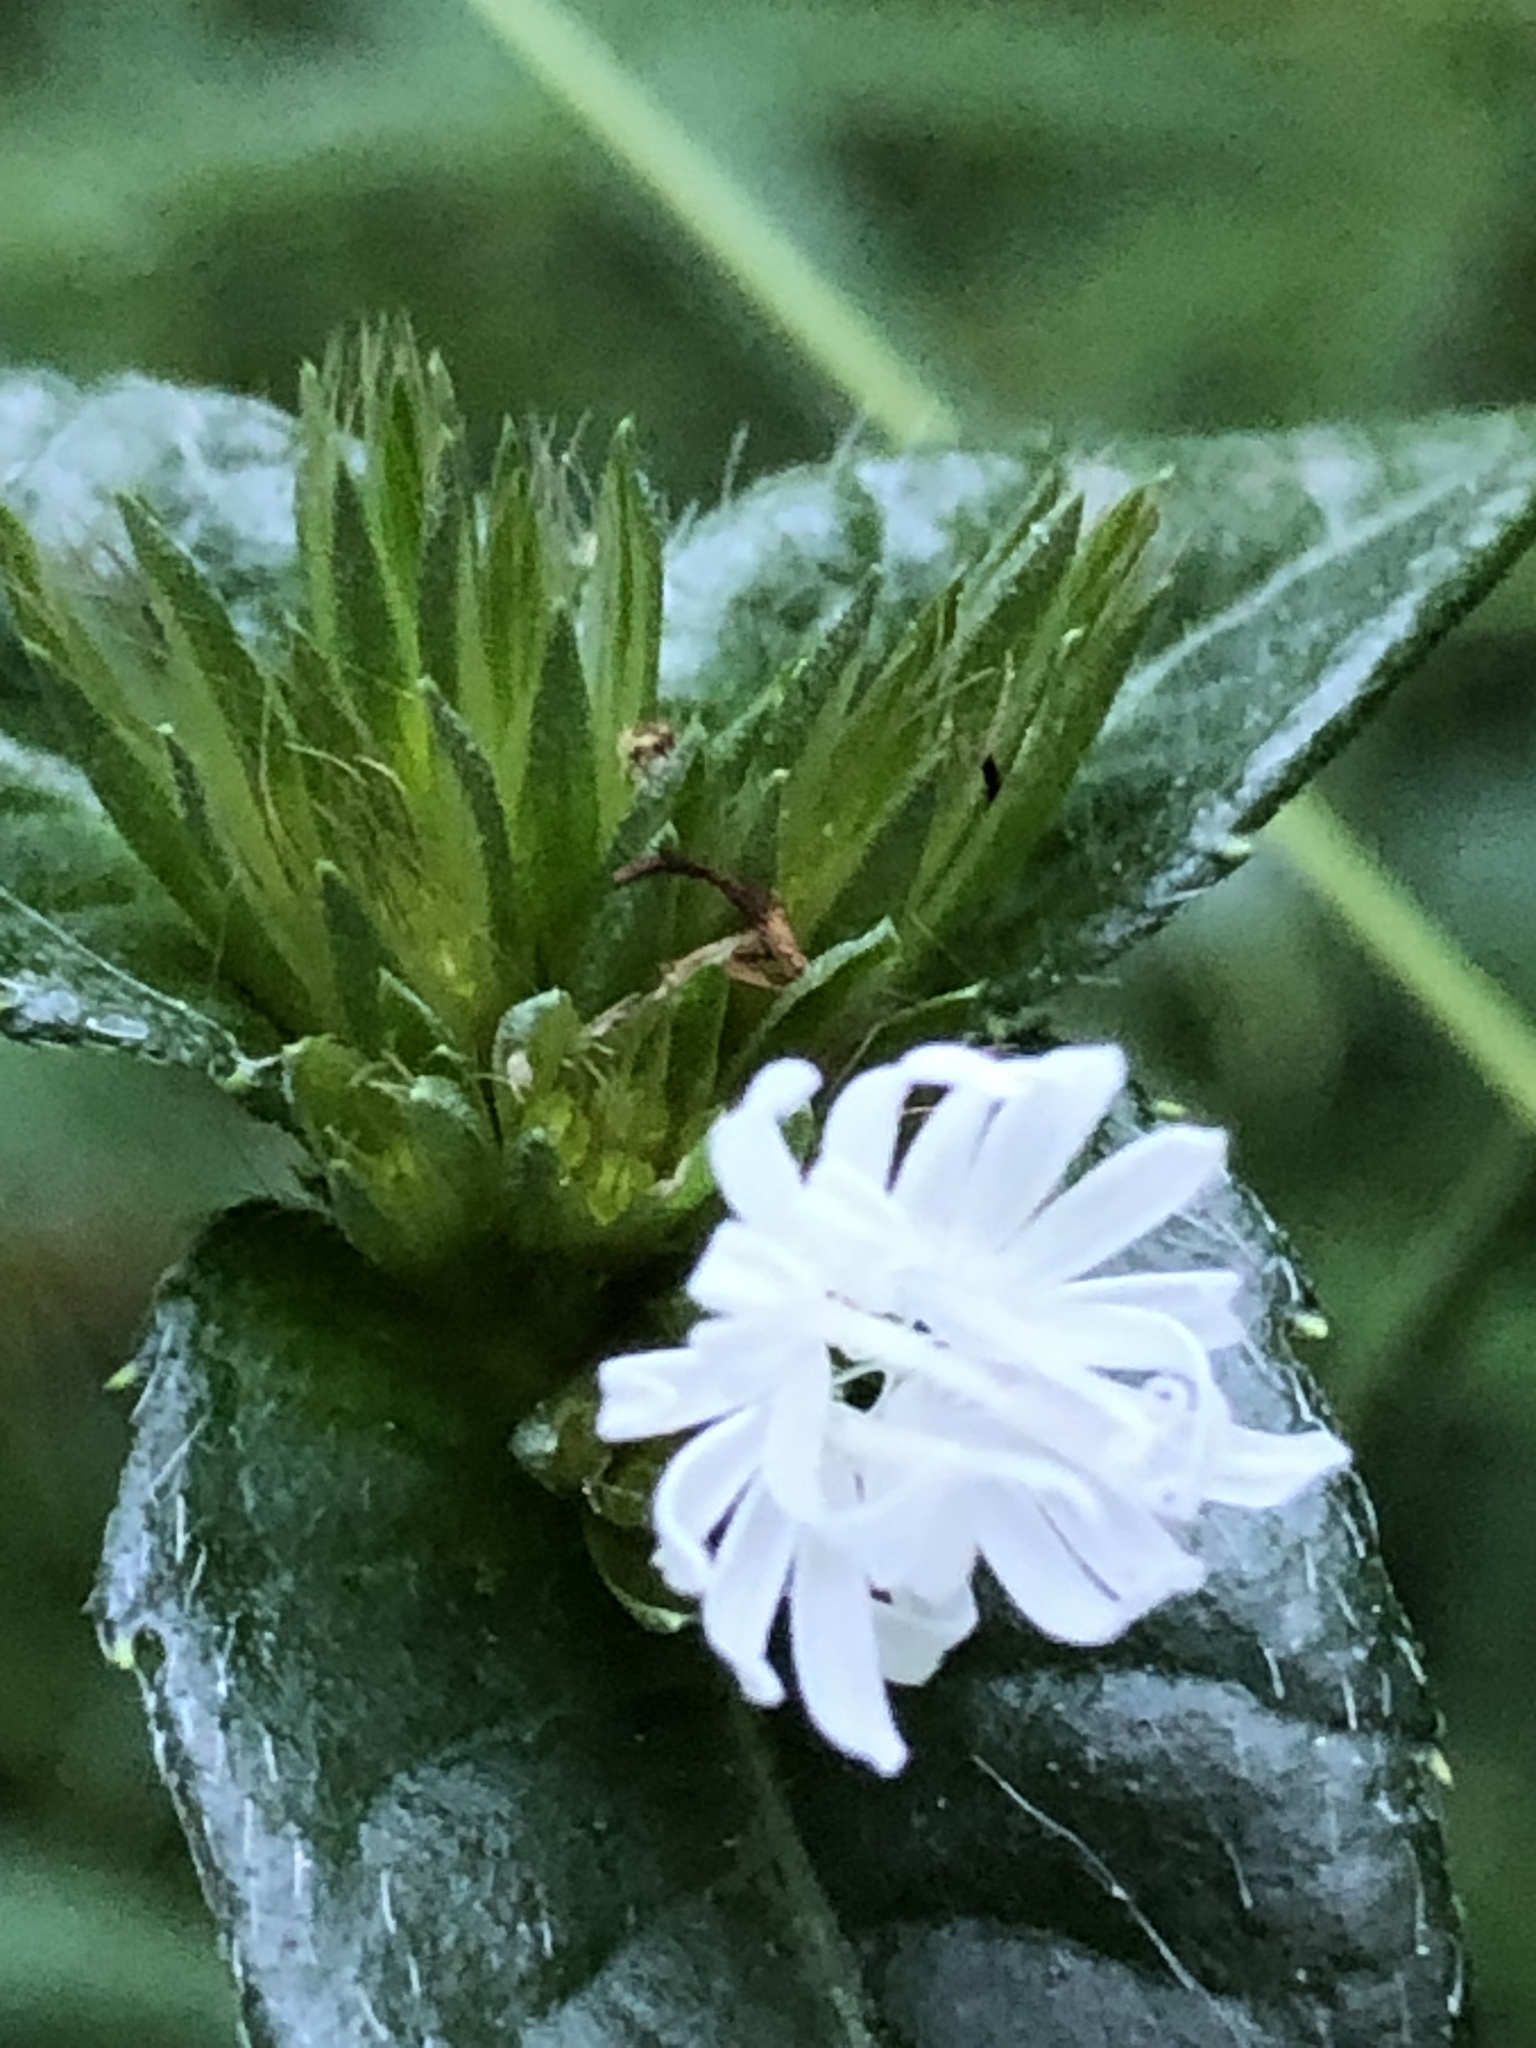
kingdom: Plantae
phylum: Tracheophyta
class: Magnoliopsida
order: Asterales
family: Asteraceae
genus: Elephantopus
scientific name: Elephantopus carolinianus
